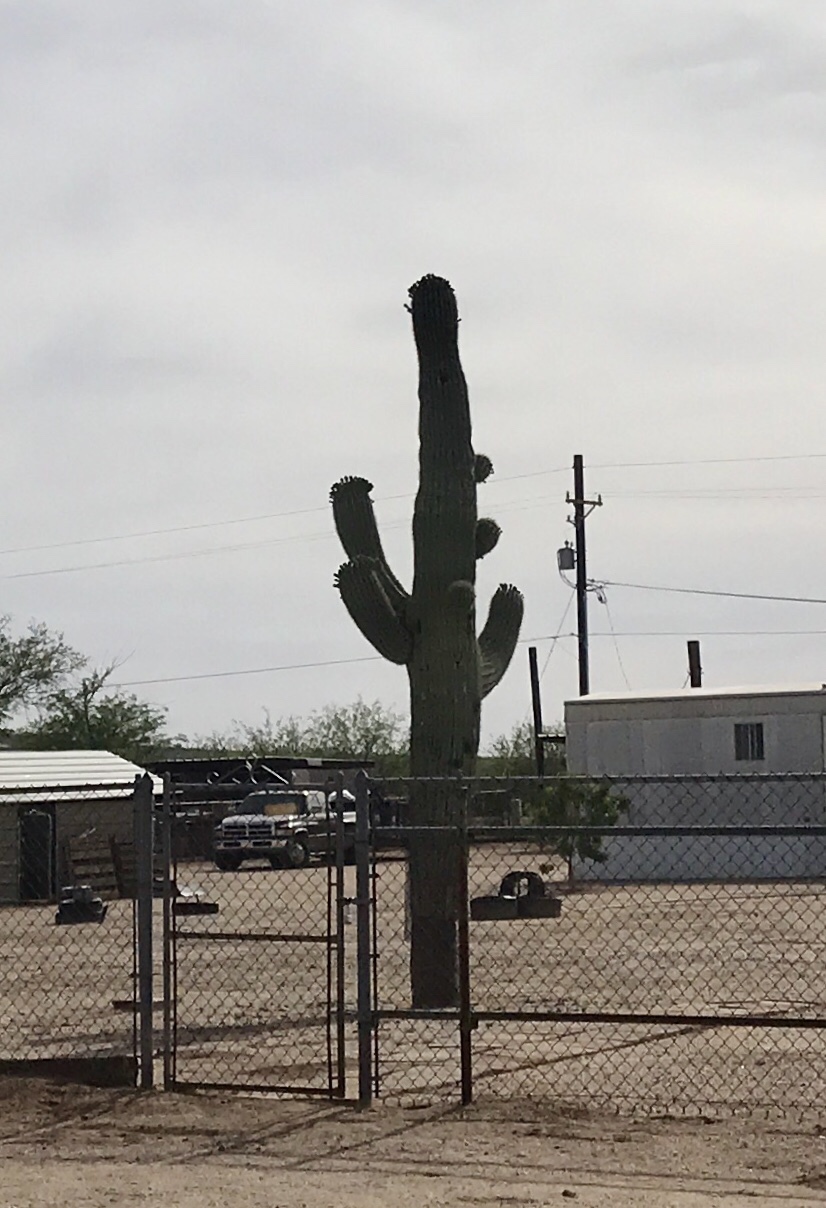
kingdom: Plantae
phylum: Tracheophyta
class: Magnoliopsida
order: Caryophyllales
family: Cactaceae
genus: Carnegiea
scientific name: Carnegiea gigantea
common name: Saguaro
